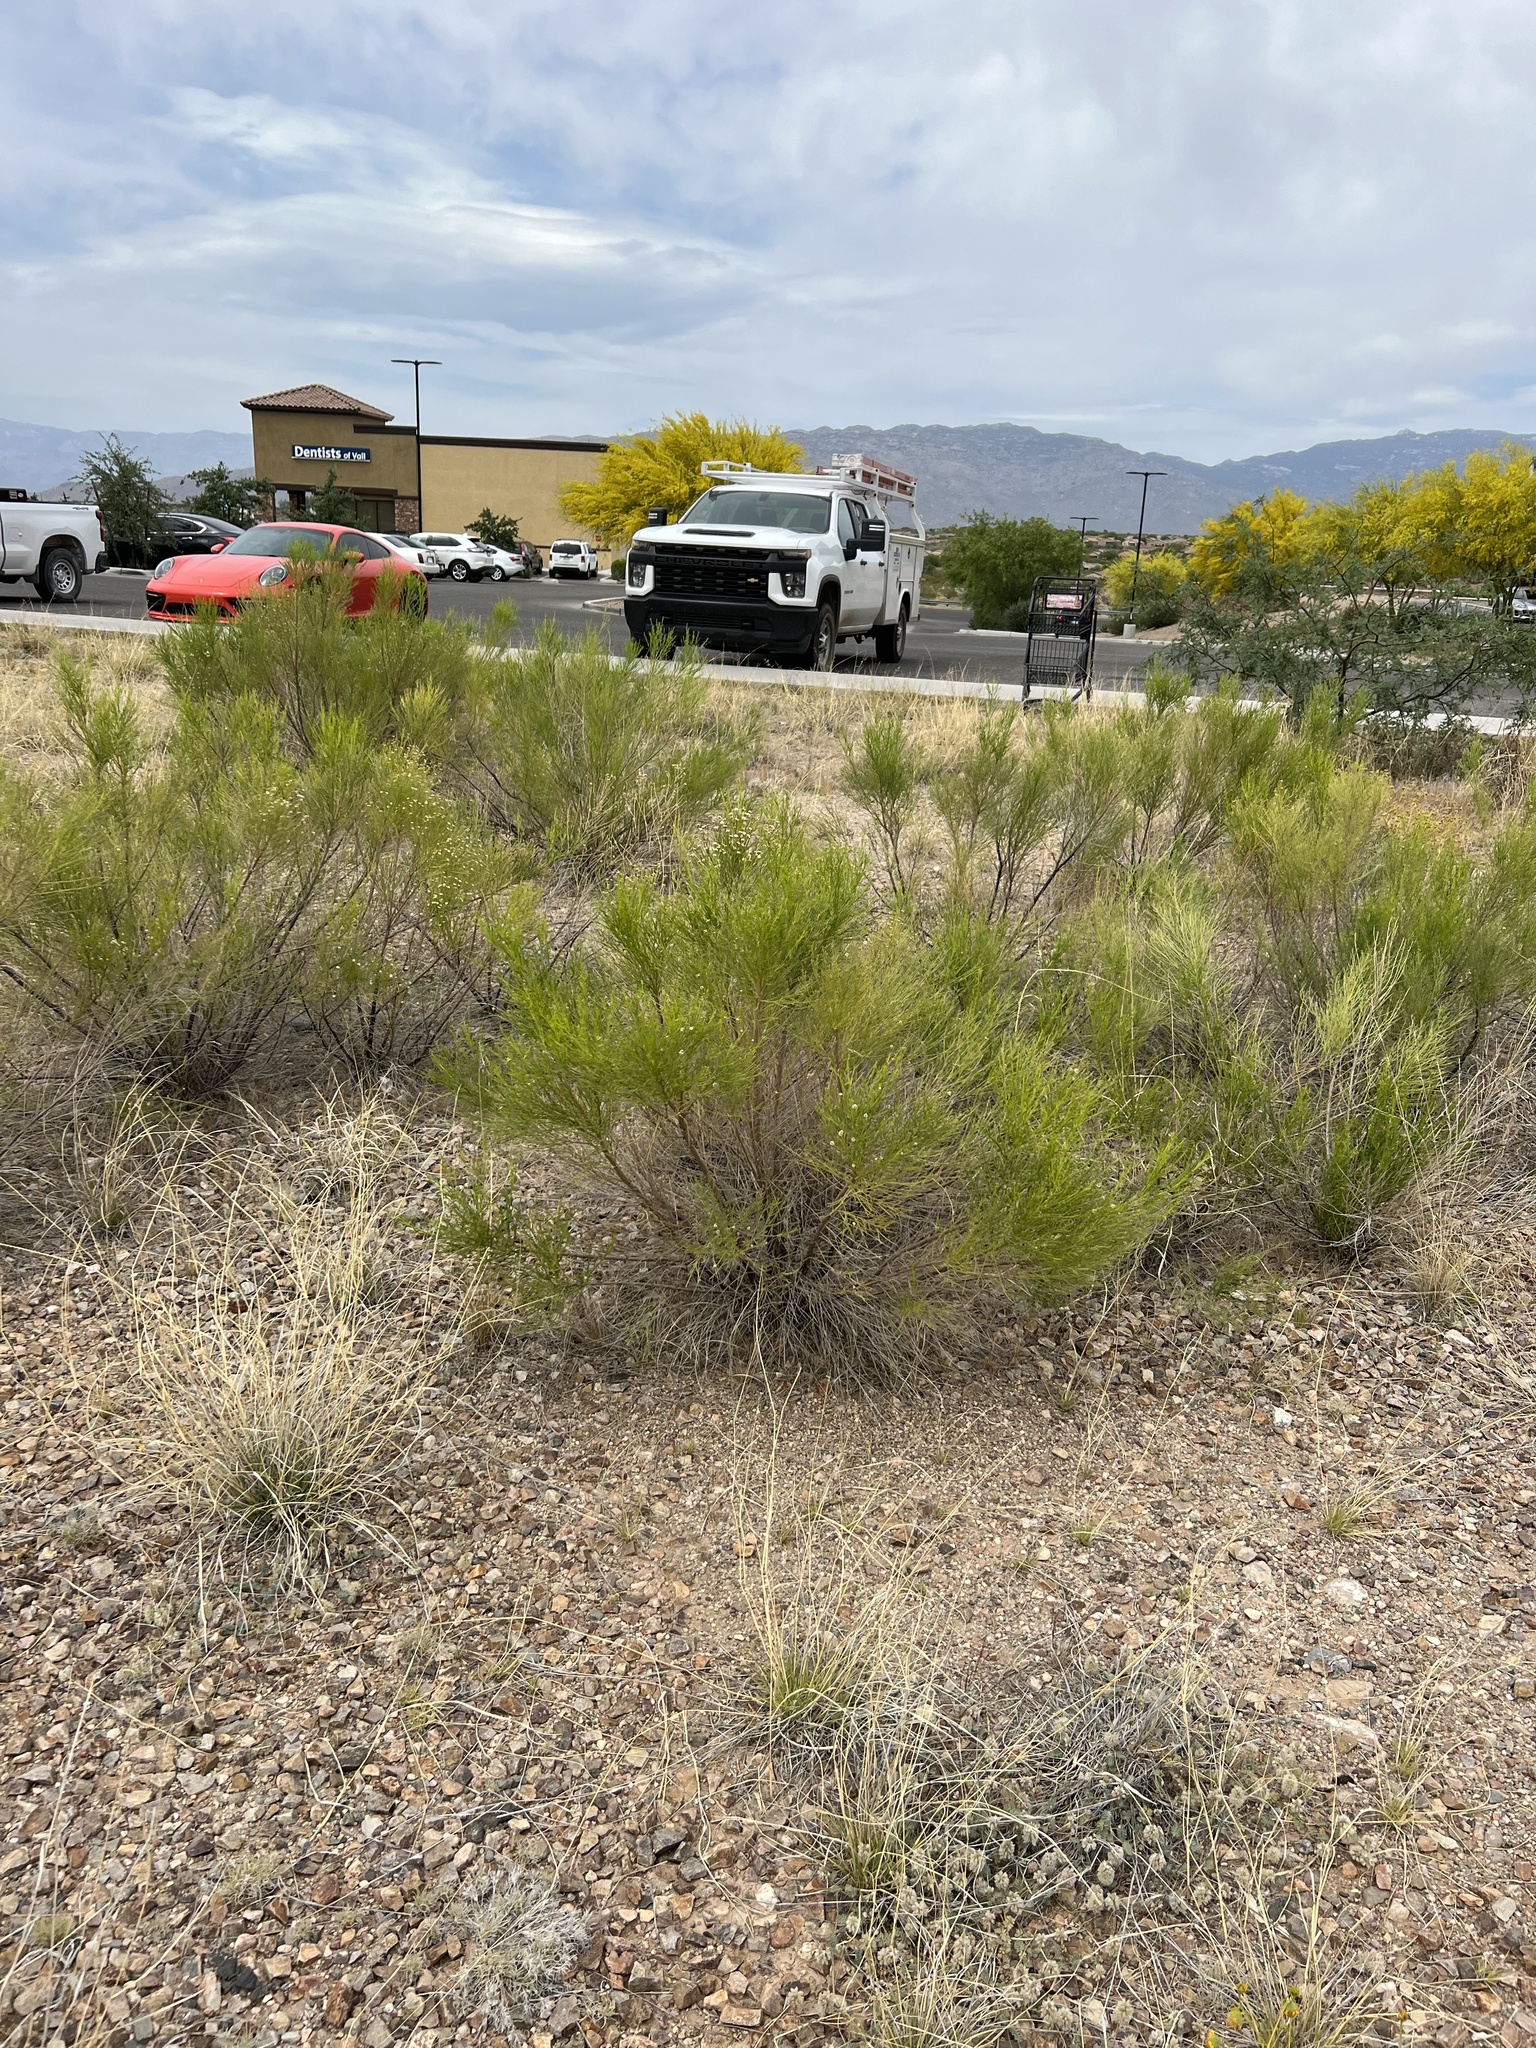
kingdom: Plantae
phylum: Tracheophyta
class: Magnoliopsida
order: Asterales
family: Asteraceae
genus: Baccharis
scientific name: Baccharis sarothroides
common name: Desert-broom
